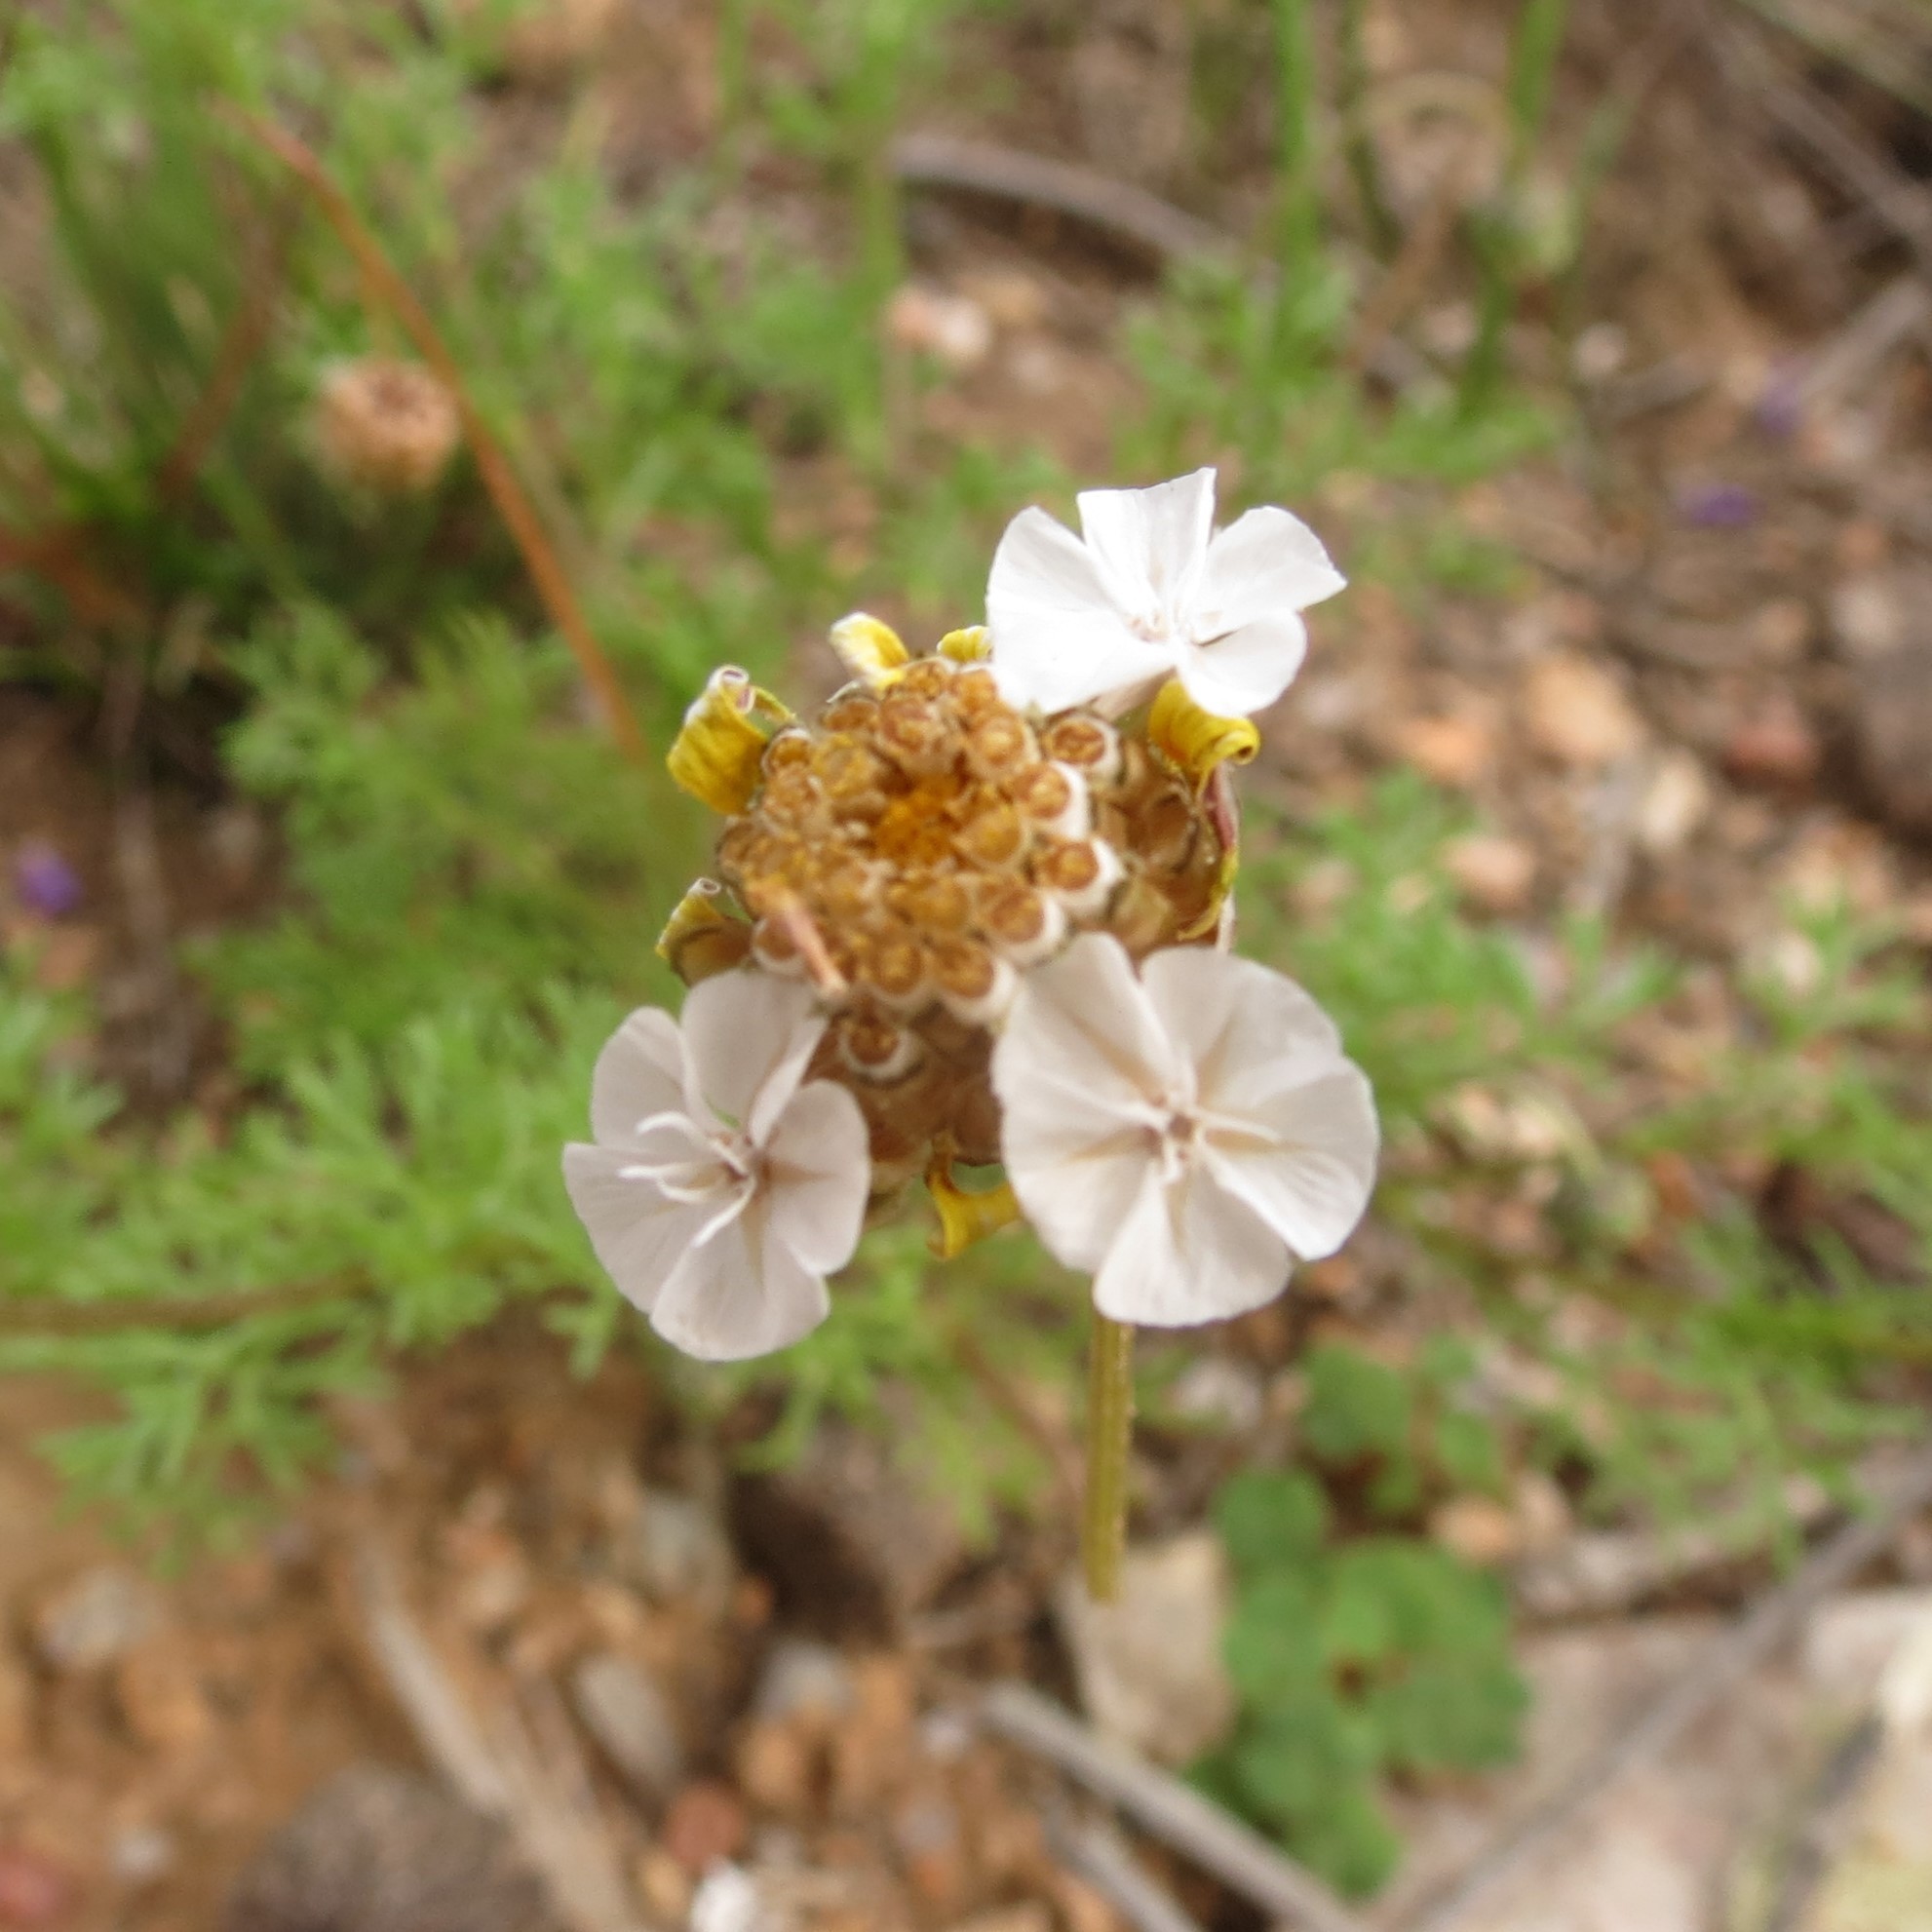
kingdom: Plantae
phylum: Tracheophyta
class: Magnoliopsida
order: Asterales
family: Asteraceae
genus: Ursinia
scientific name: Ursinia chrysanthemoides
